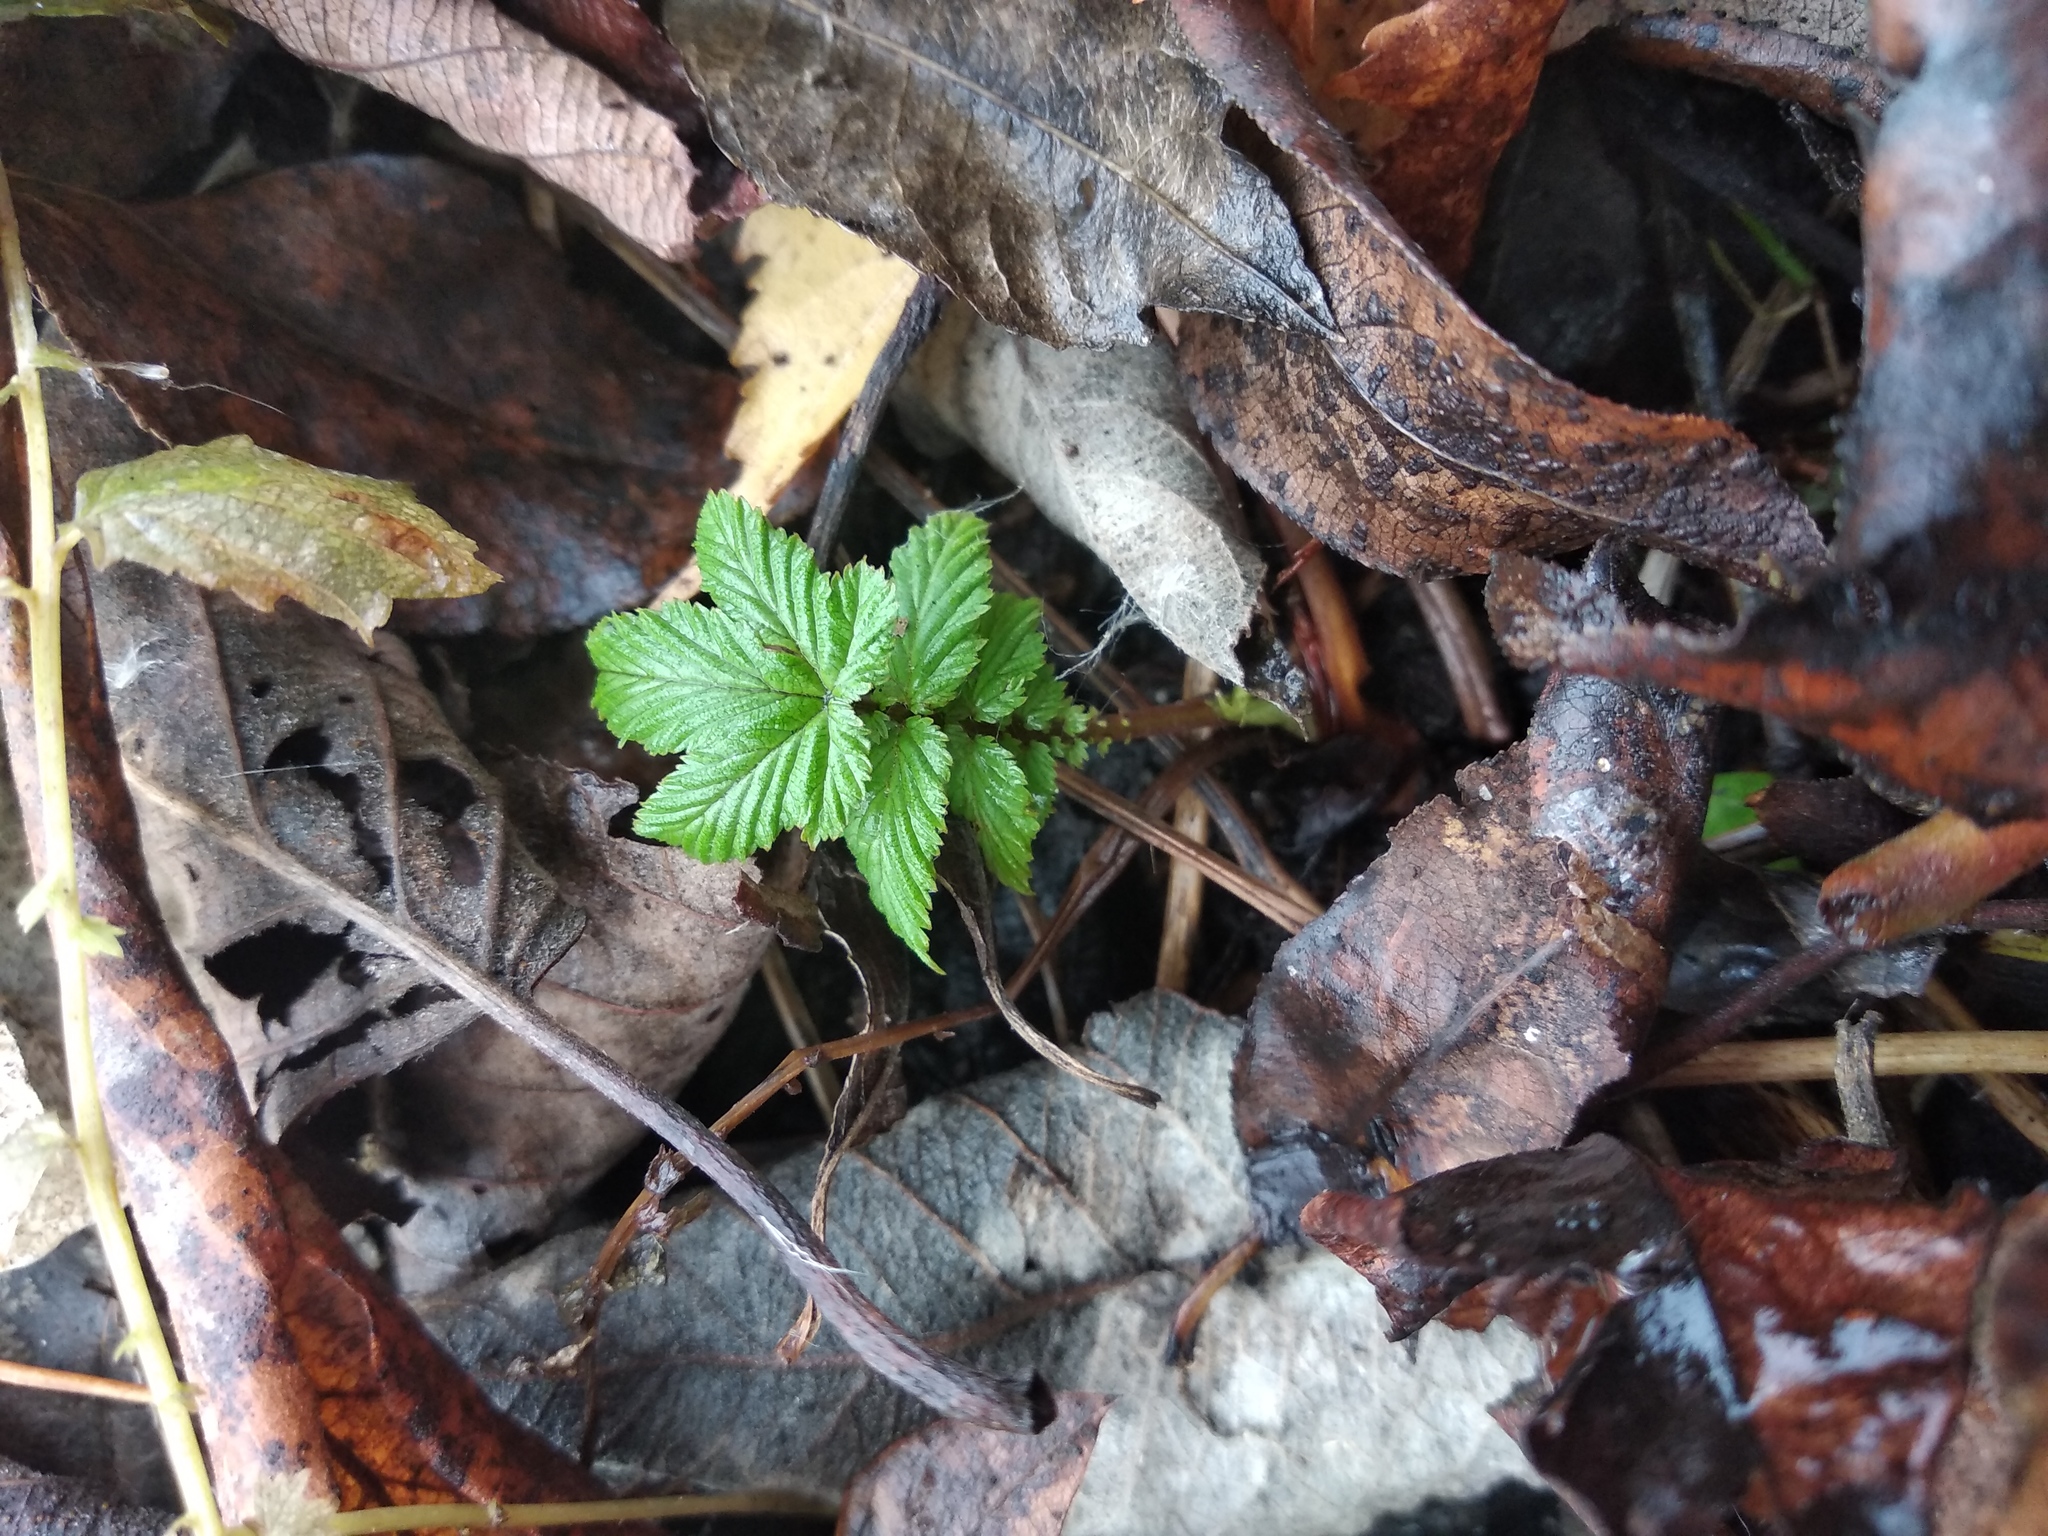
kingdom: Plantae
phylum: Tracheophyta
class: Magnoliopsida
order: Rosales
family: Rosaceae
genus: Filipendula
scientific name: Filipendula ulmaria
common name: Meadowsweet
